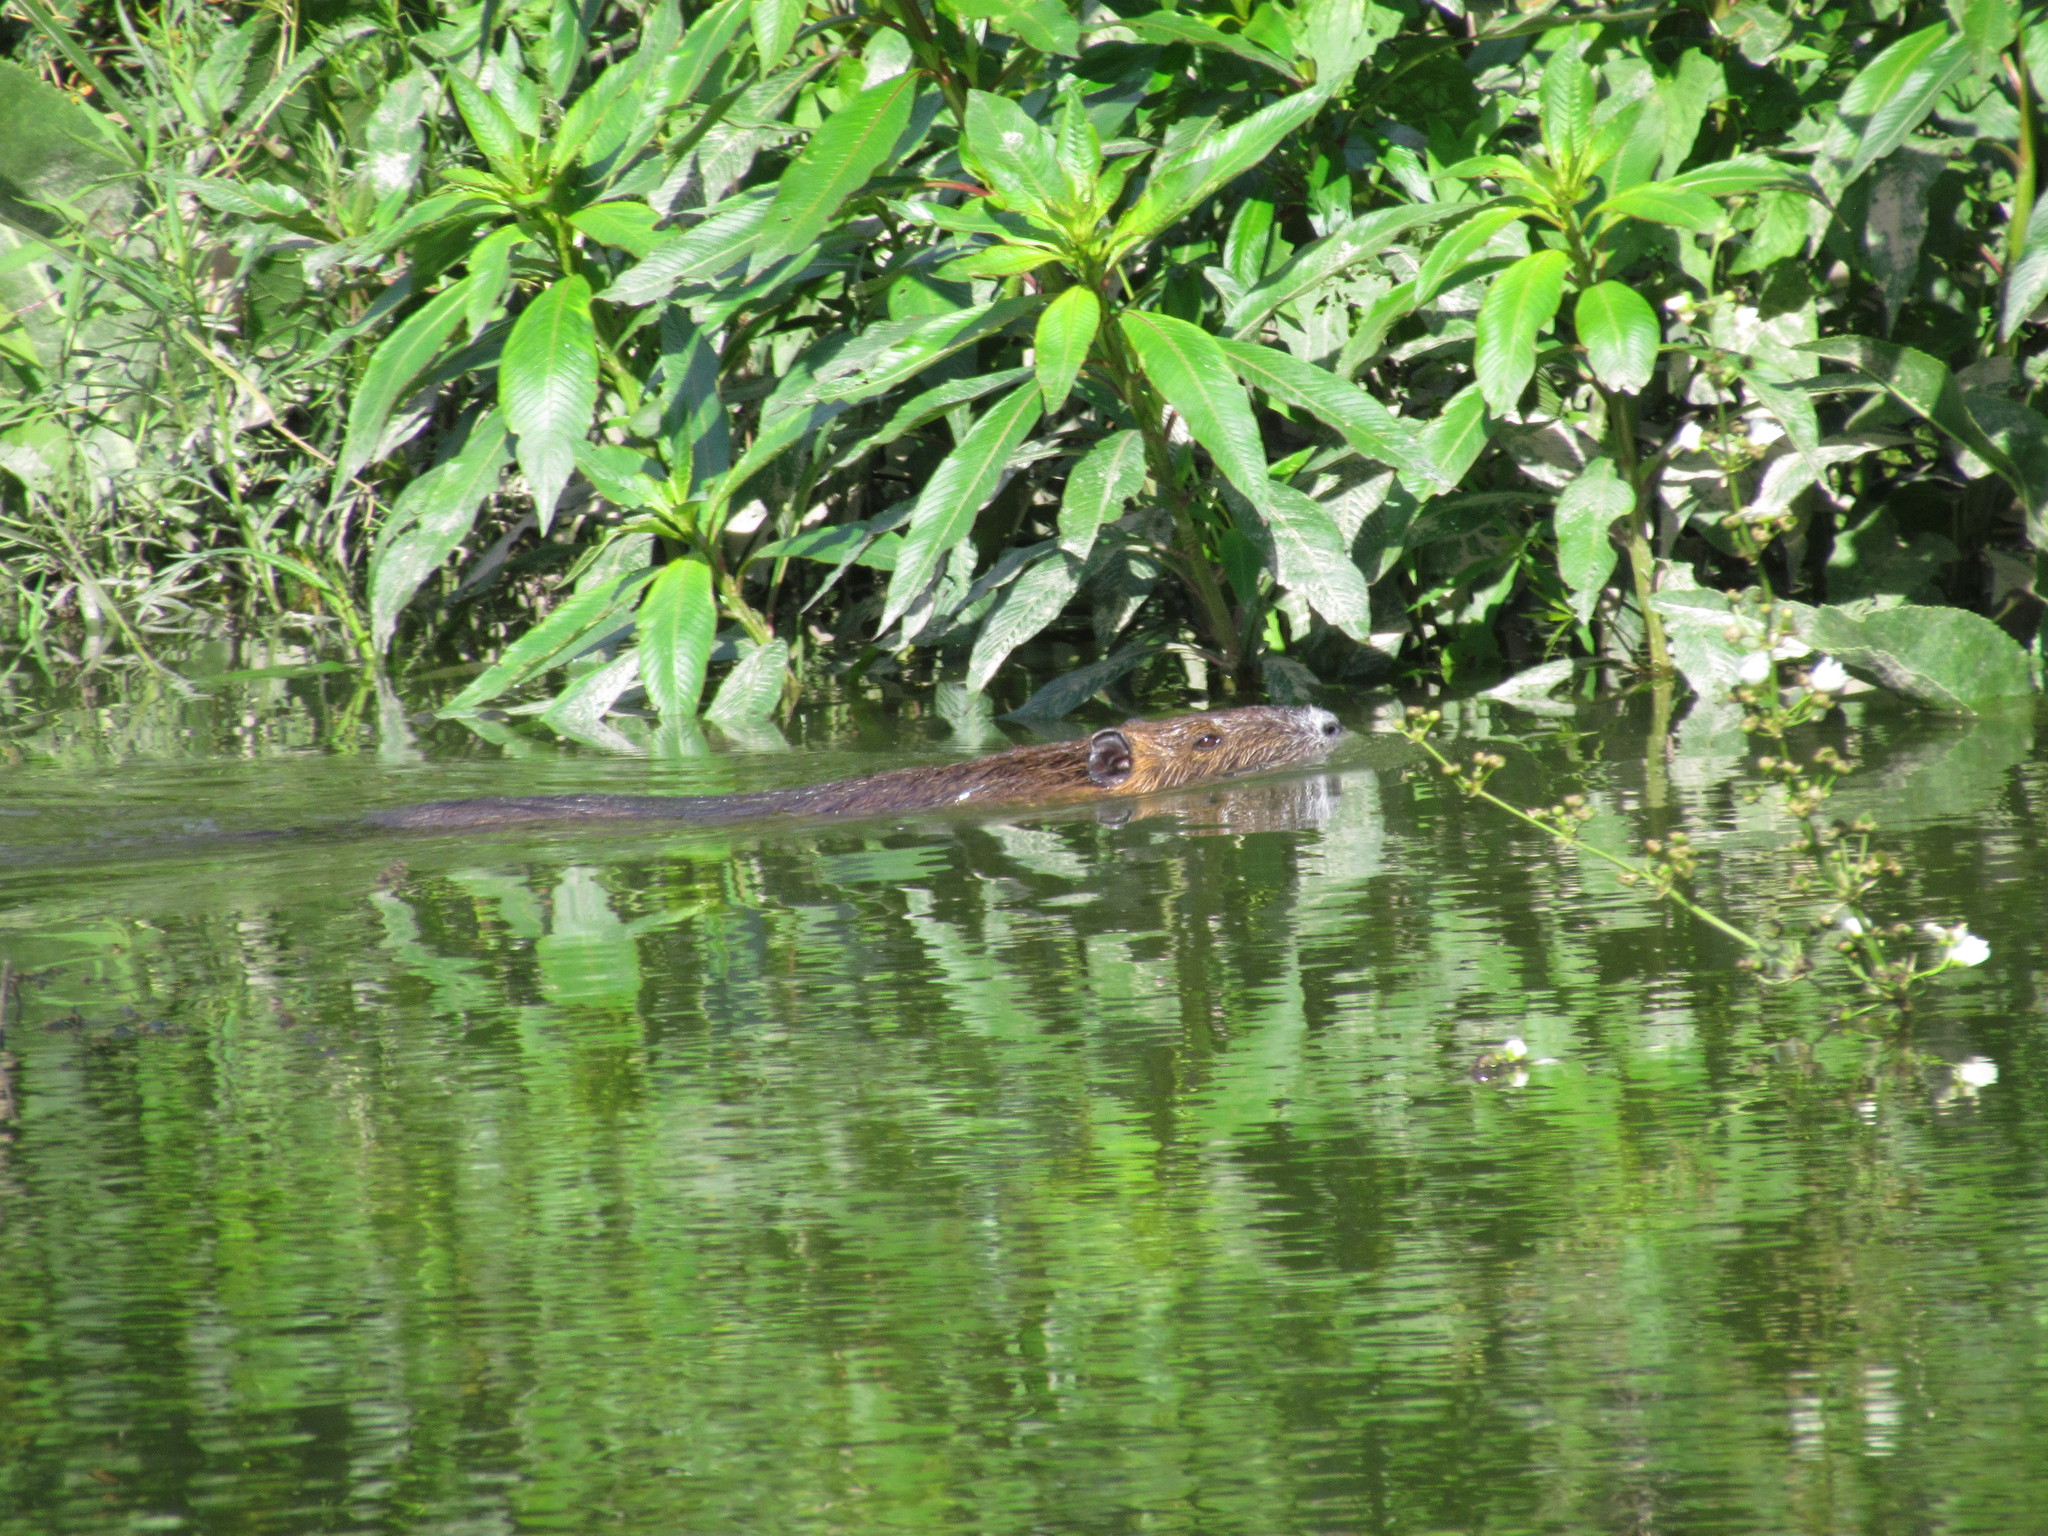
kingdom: Animalia
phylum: Chordata
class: Mammalia
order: Rodentia
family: Myocastoridae
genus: Myocastor
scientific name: Myocastor coypus
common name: Coypu
